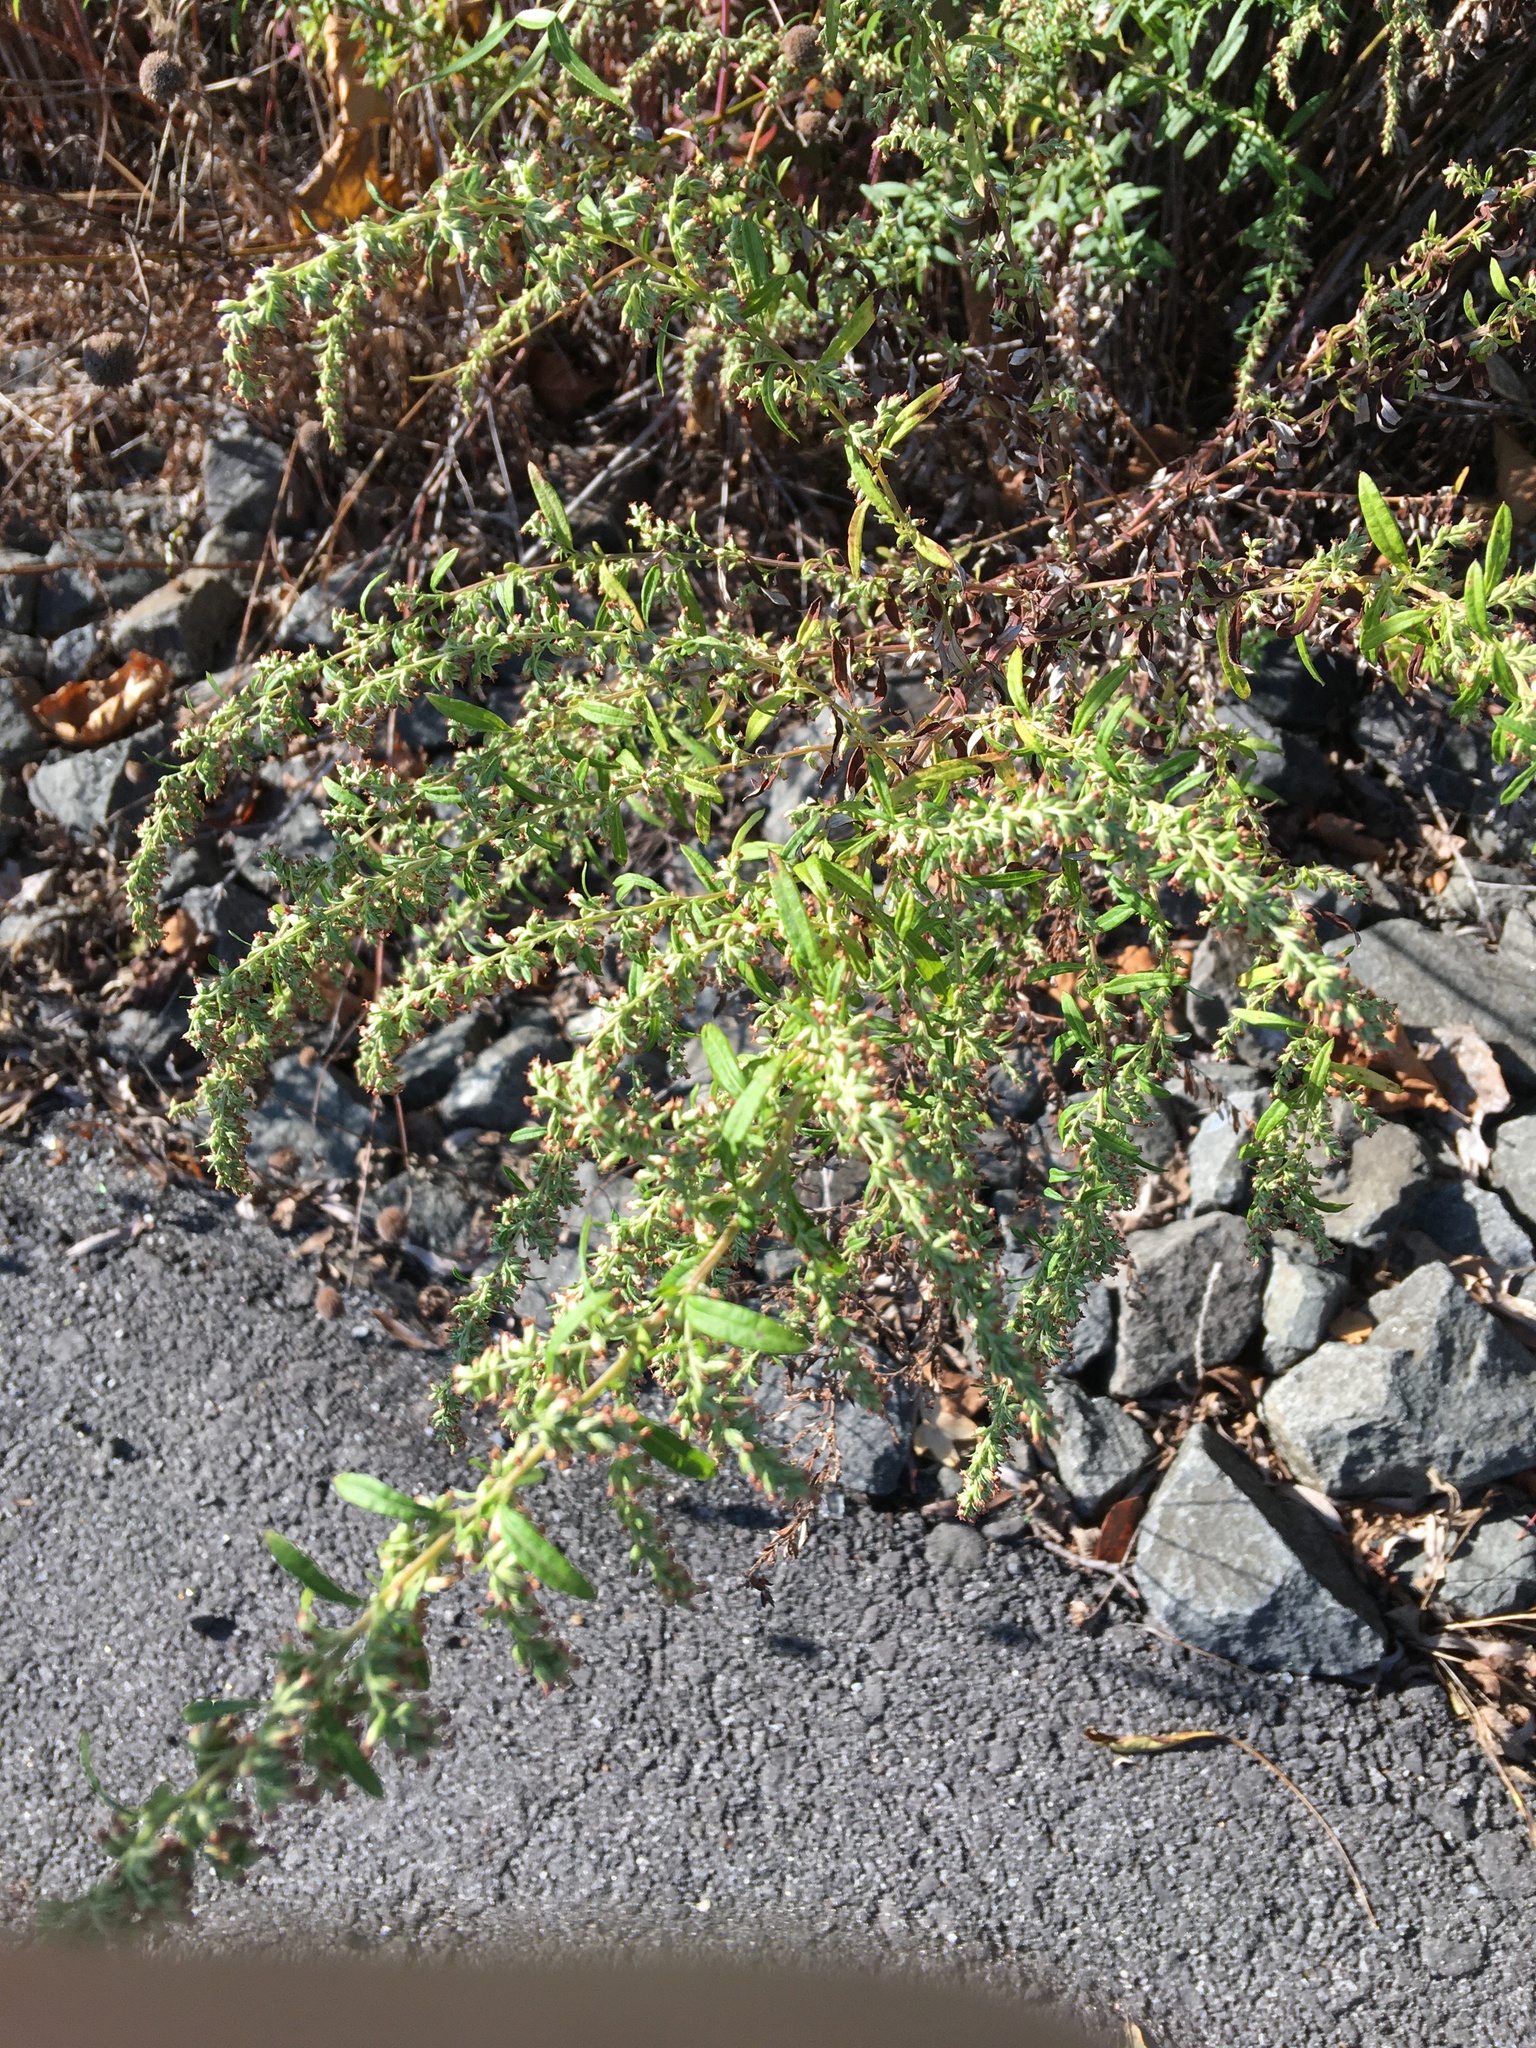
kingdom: Plantae
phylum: Tracheophyta
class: Magnoliopsida
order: Asterales
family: Asteraceae
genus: Artemisia
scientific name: Artemisia vulgaris
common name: Mugwort
